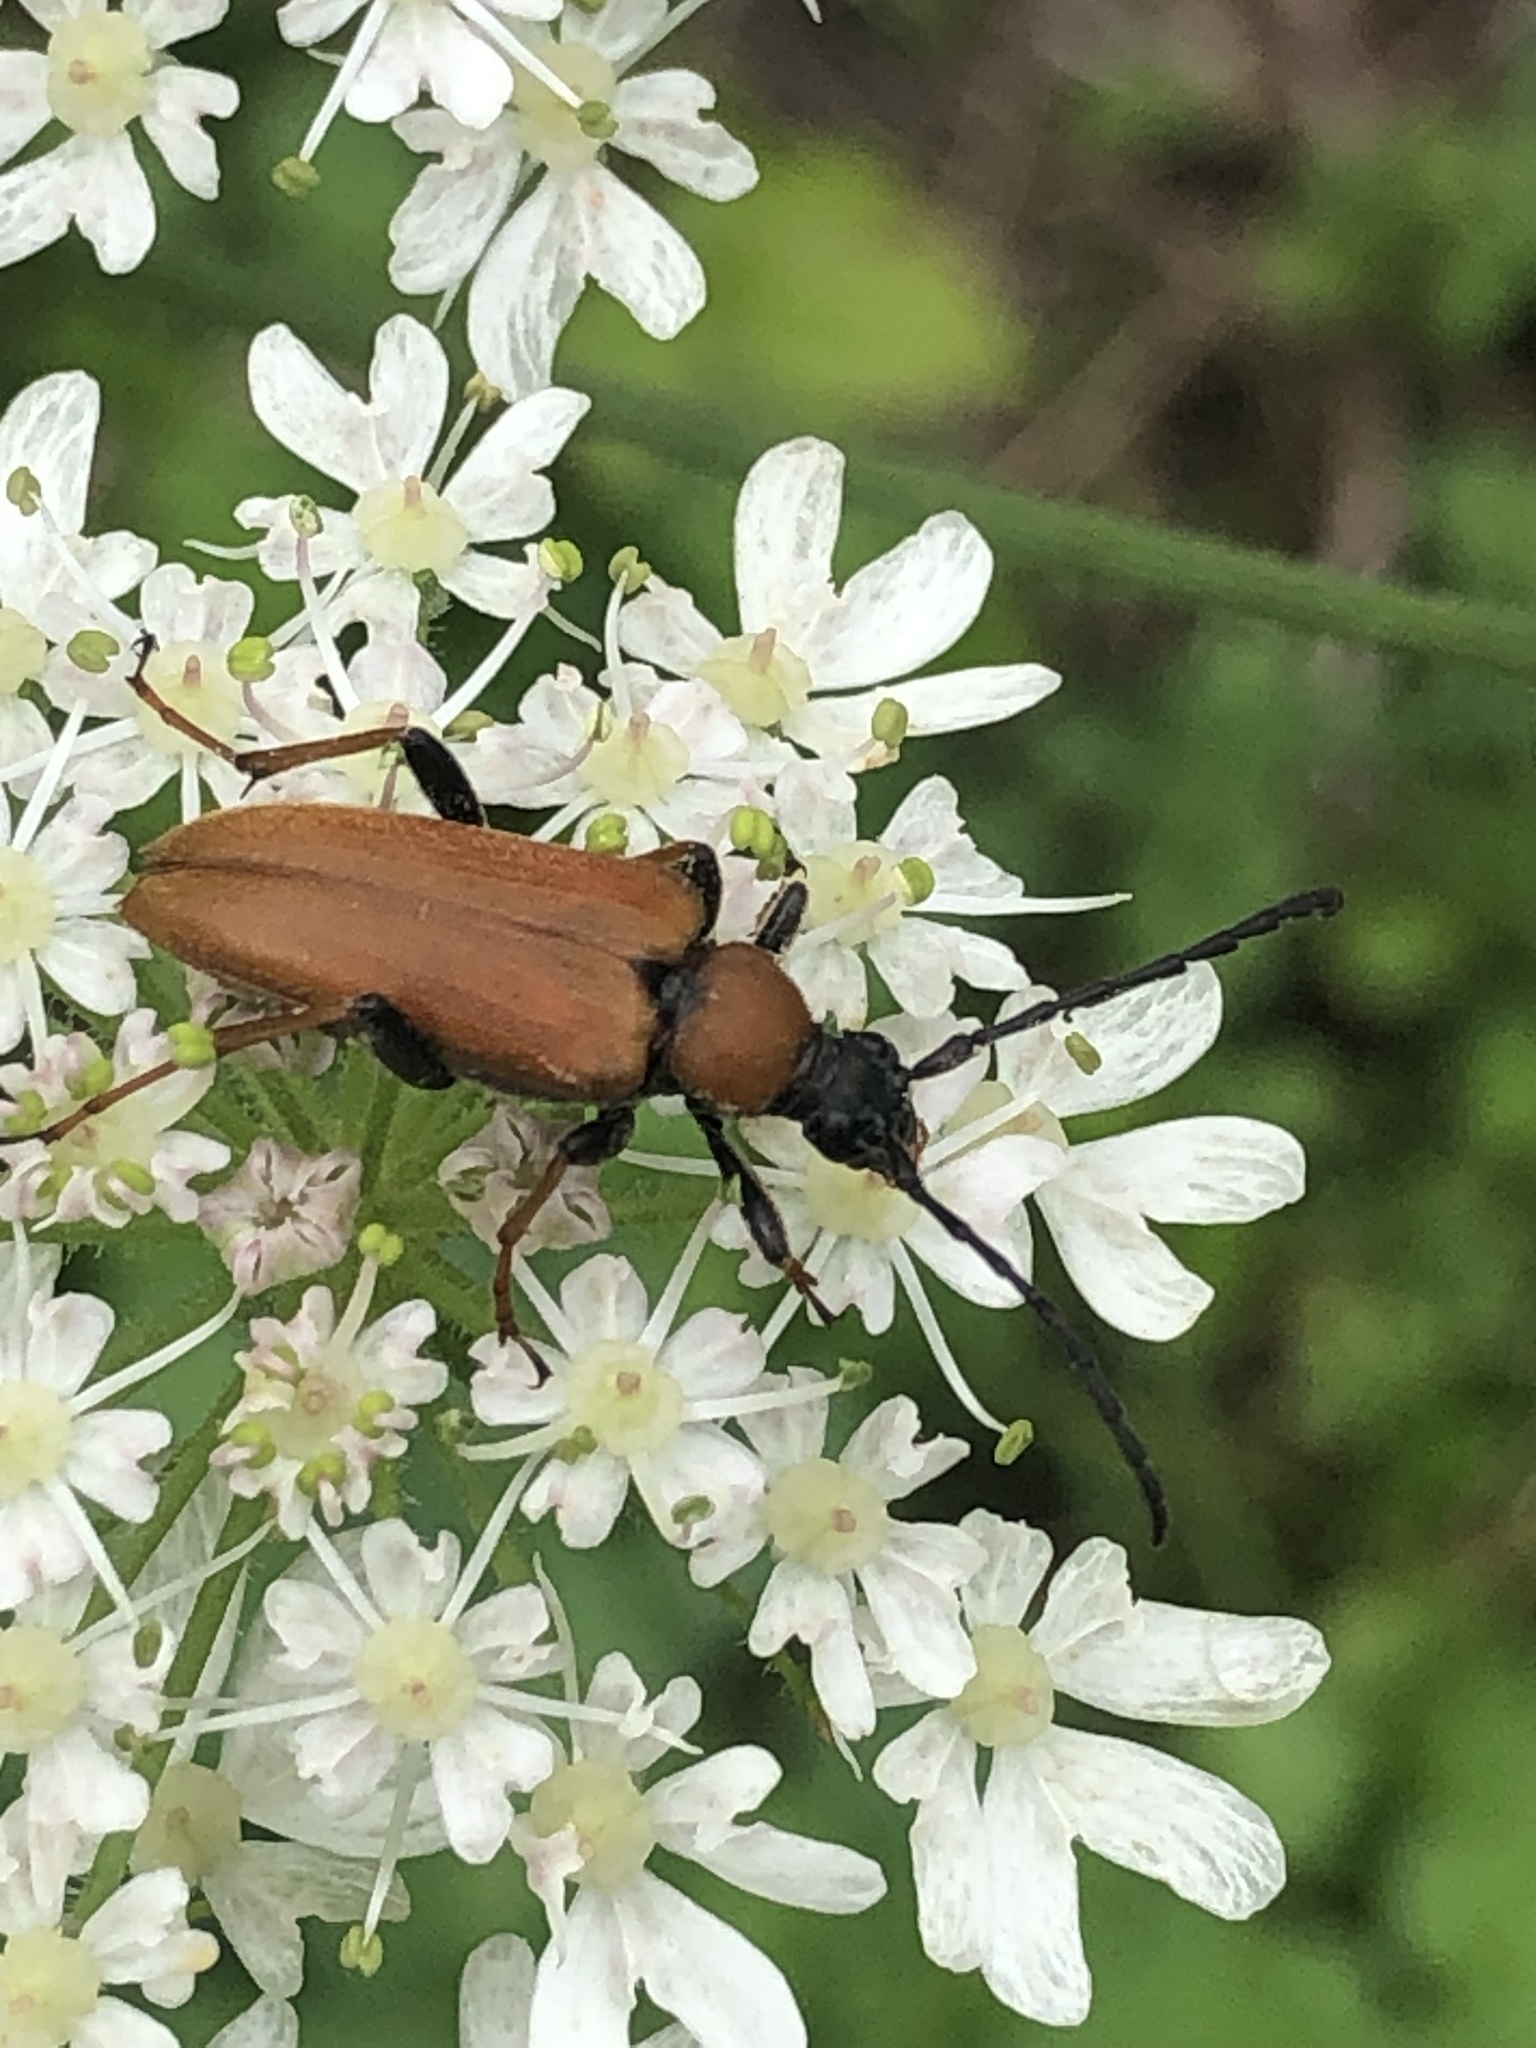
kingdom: Animalia
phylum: Arthropoda
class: Insecta
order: Coleoptera
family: Cerambycidae
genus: Stictoleptura
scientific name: Stictoleptura rubra
